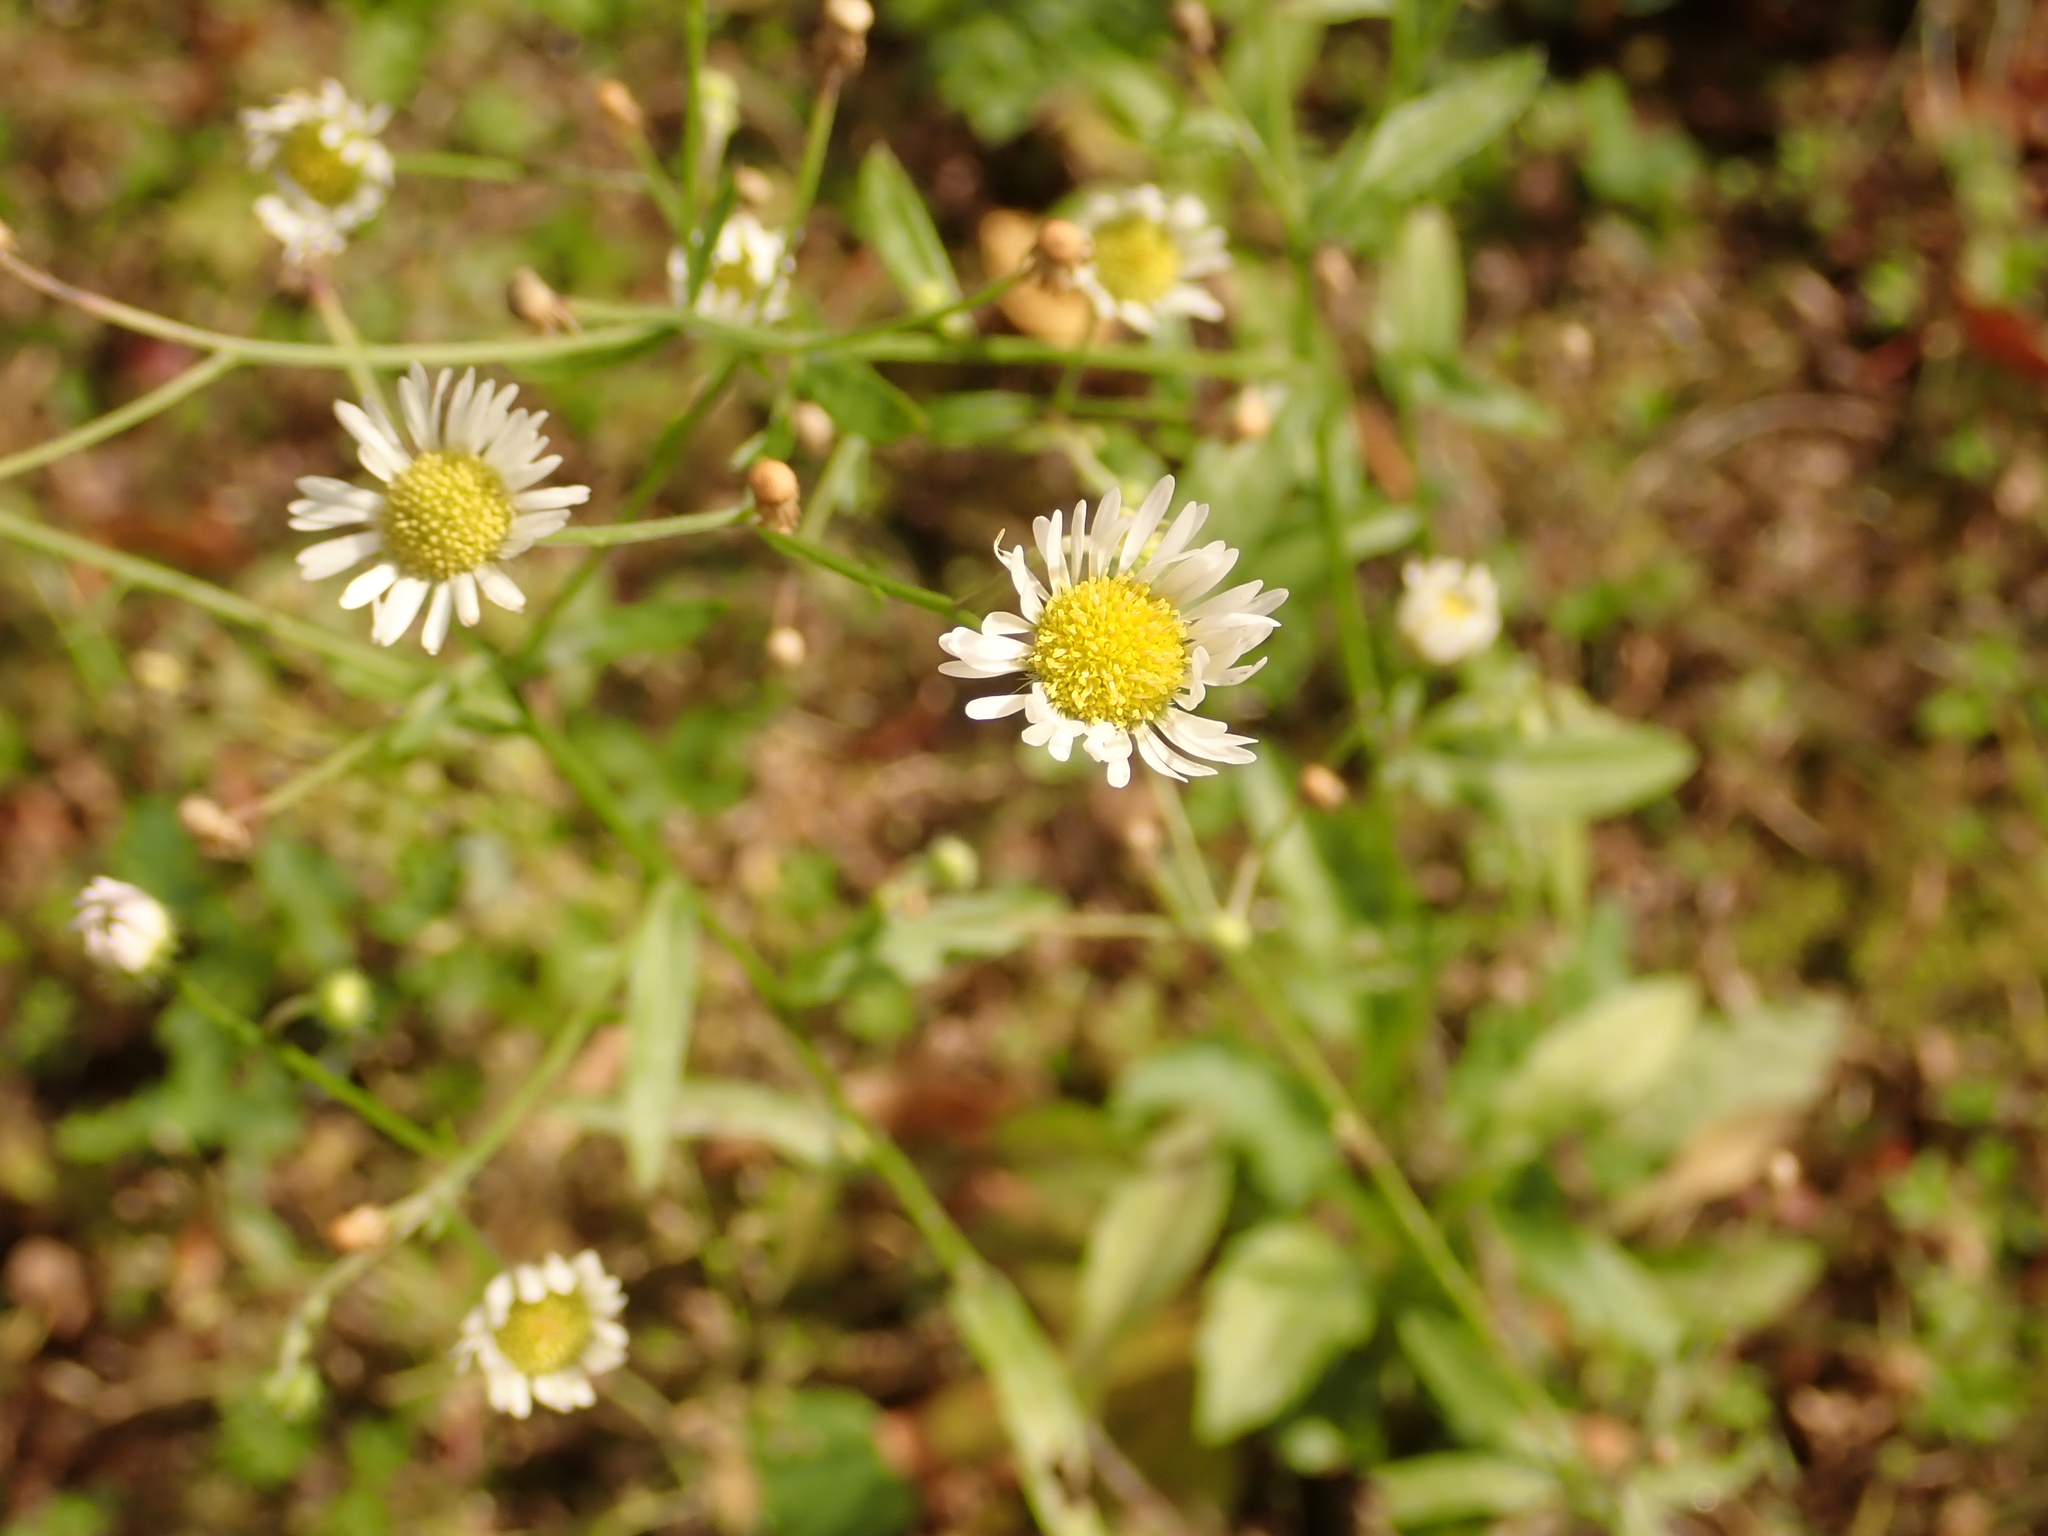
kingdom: Plantae
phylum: Tracheophyta
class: Magnoliopsida
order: Asterales
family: Asteraceae
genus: Erigeron
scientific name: Erigeron annuus
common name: Tall fleabane
